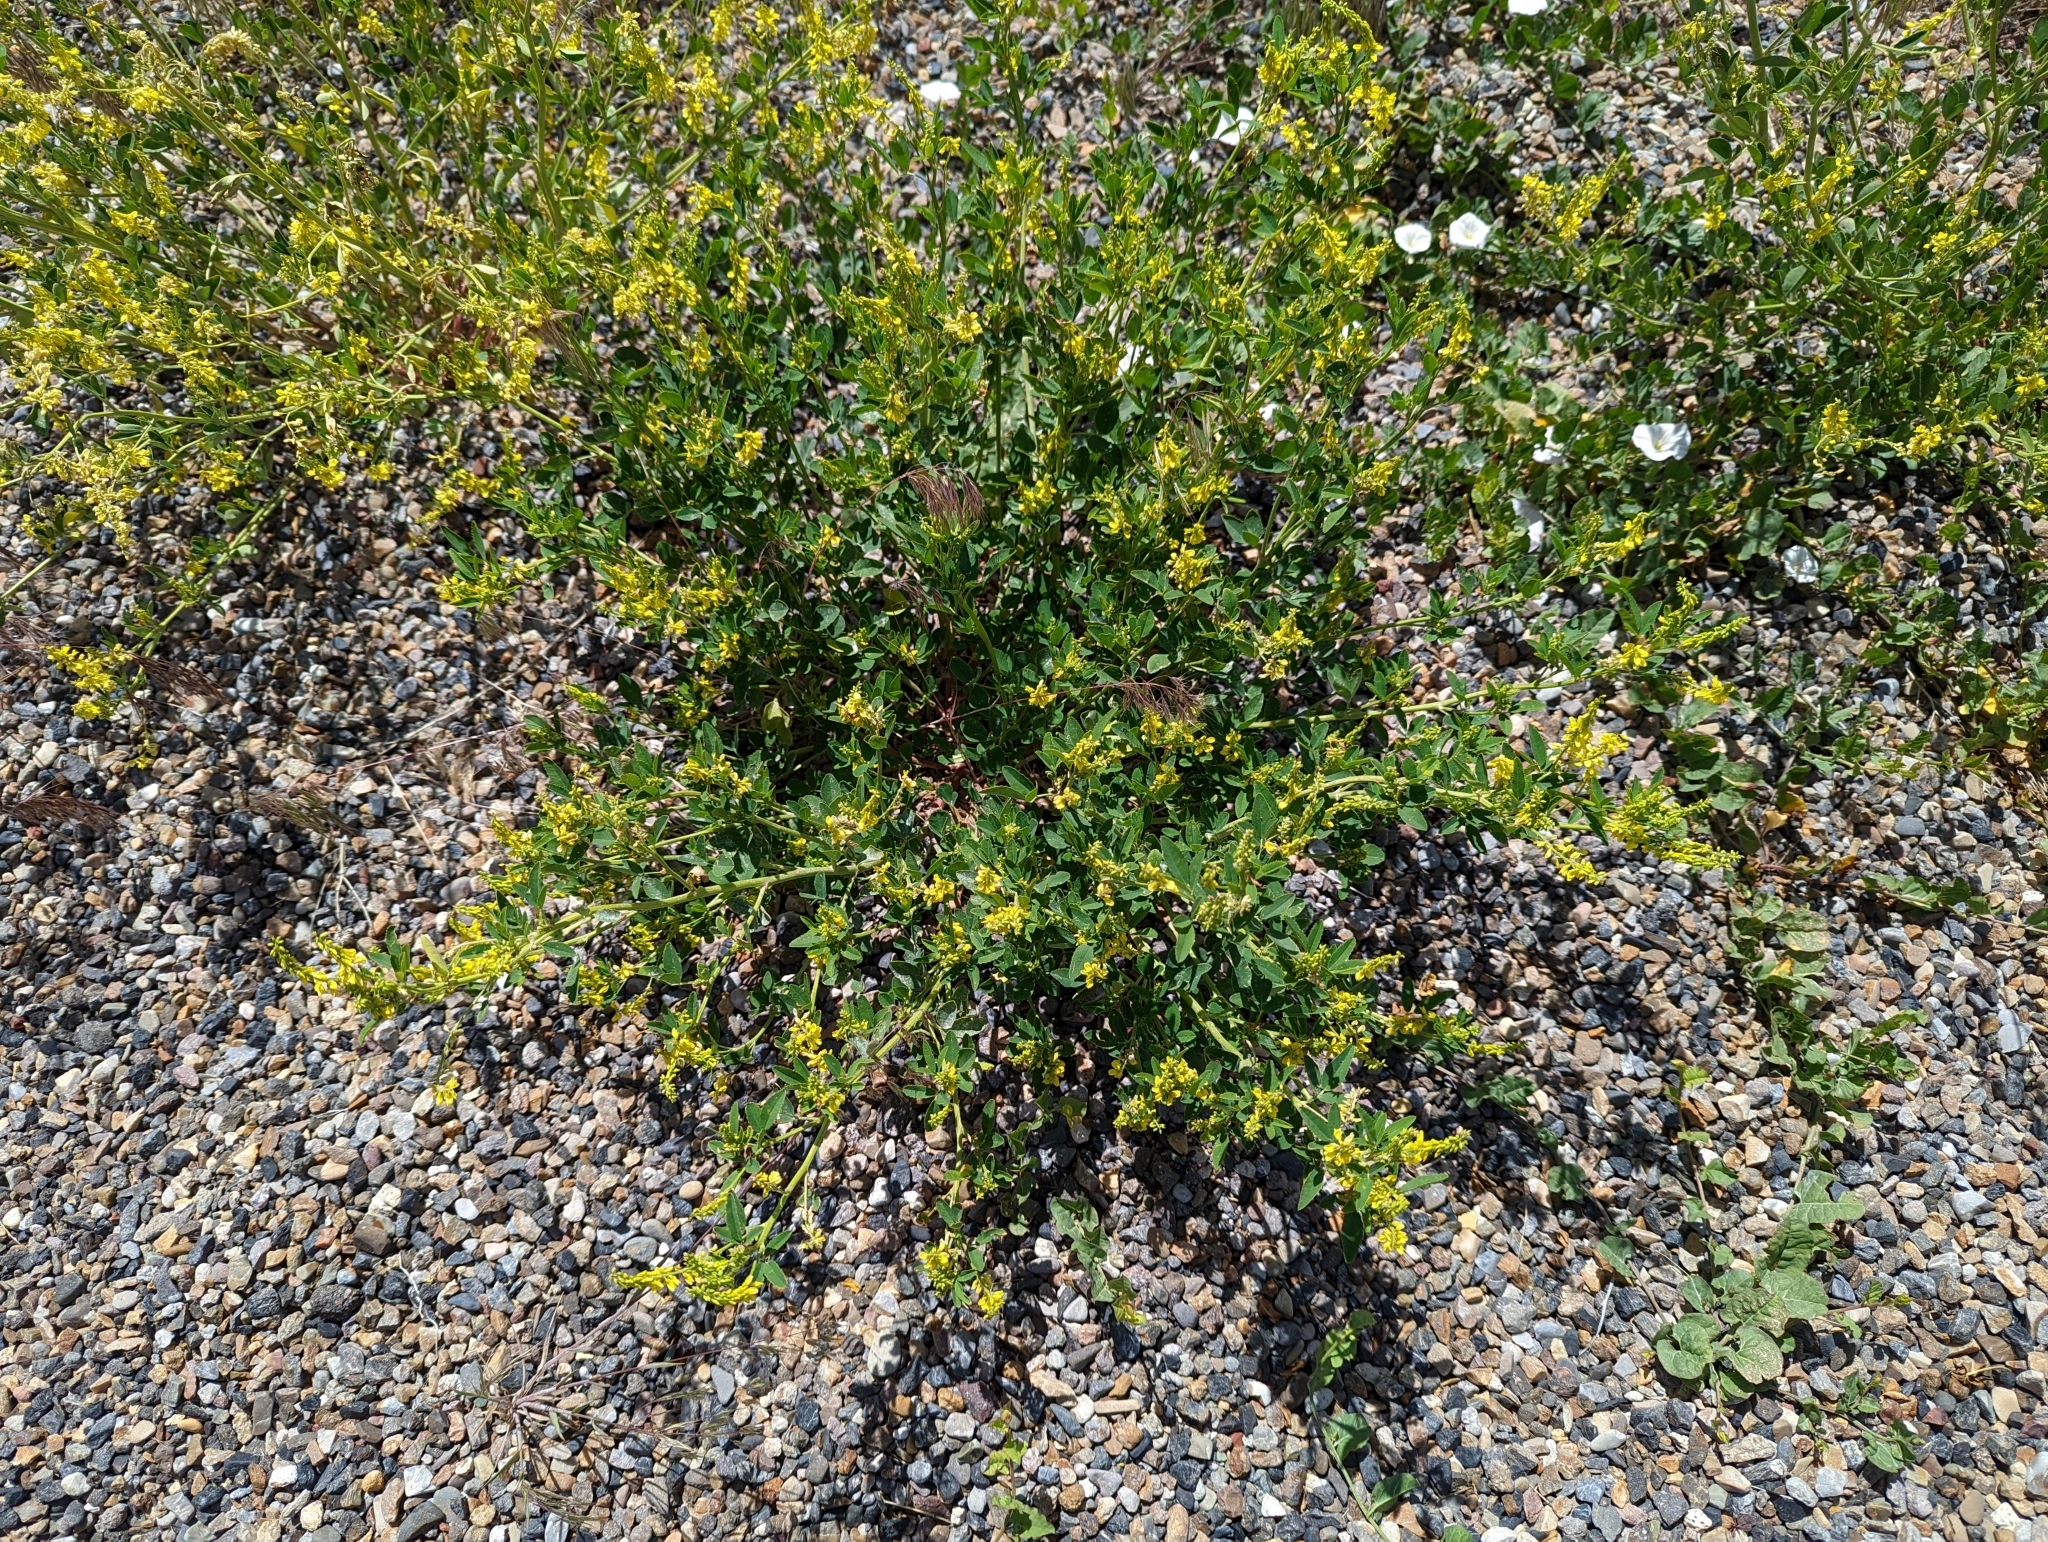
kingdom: Plantae
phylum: Tracheophyta
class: Magnoliopsida
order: Fabales
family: Fabaceae
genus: Melilotus
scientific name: Melilotus officinalis
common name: Sweetclover
